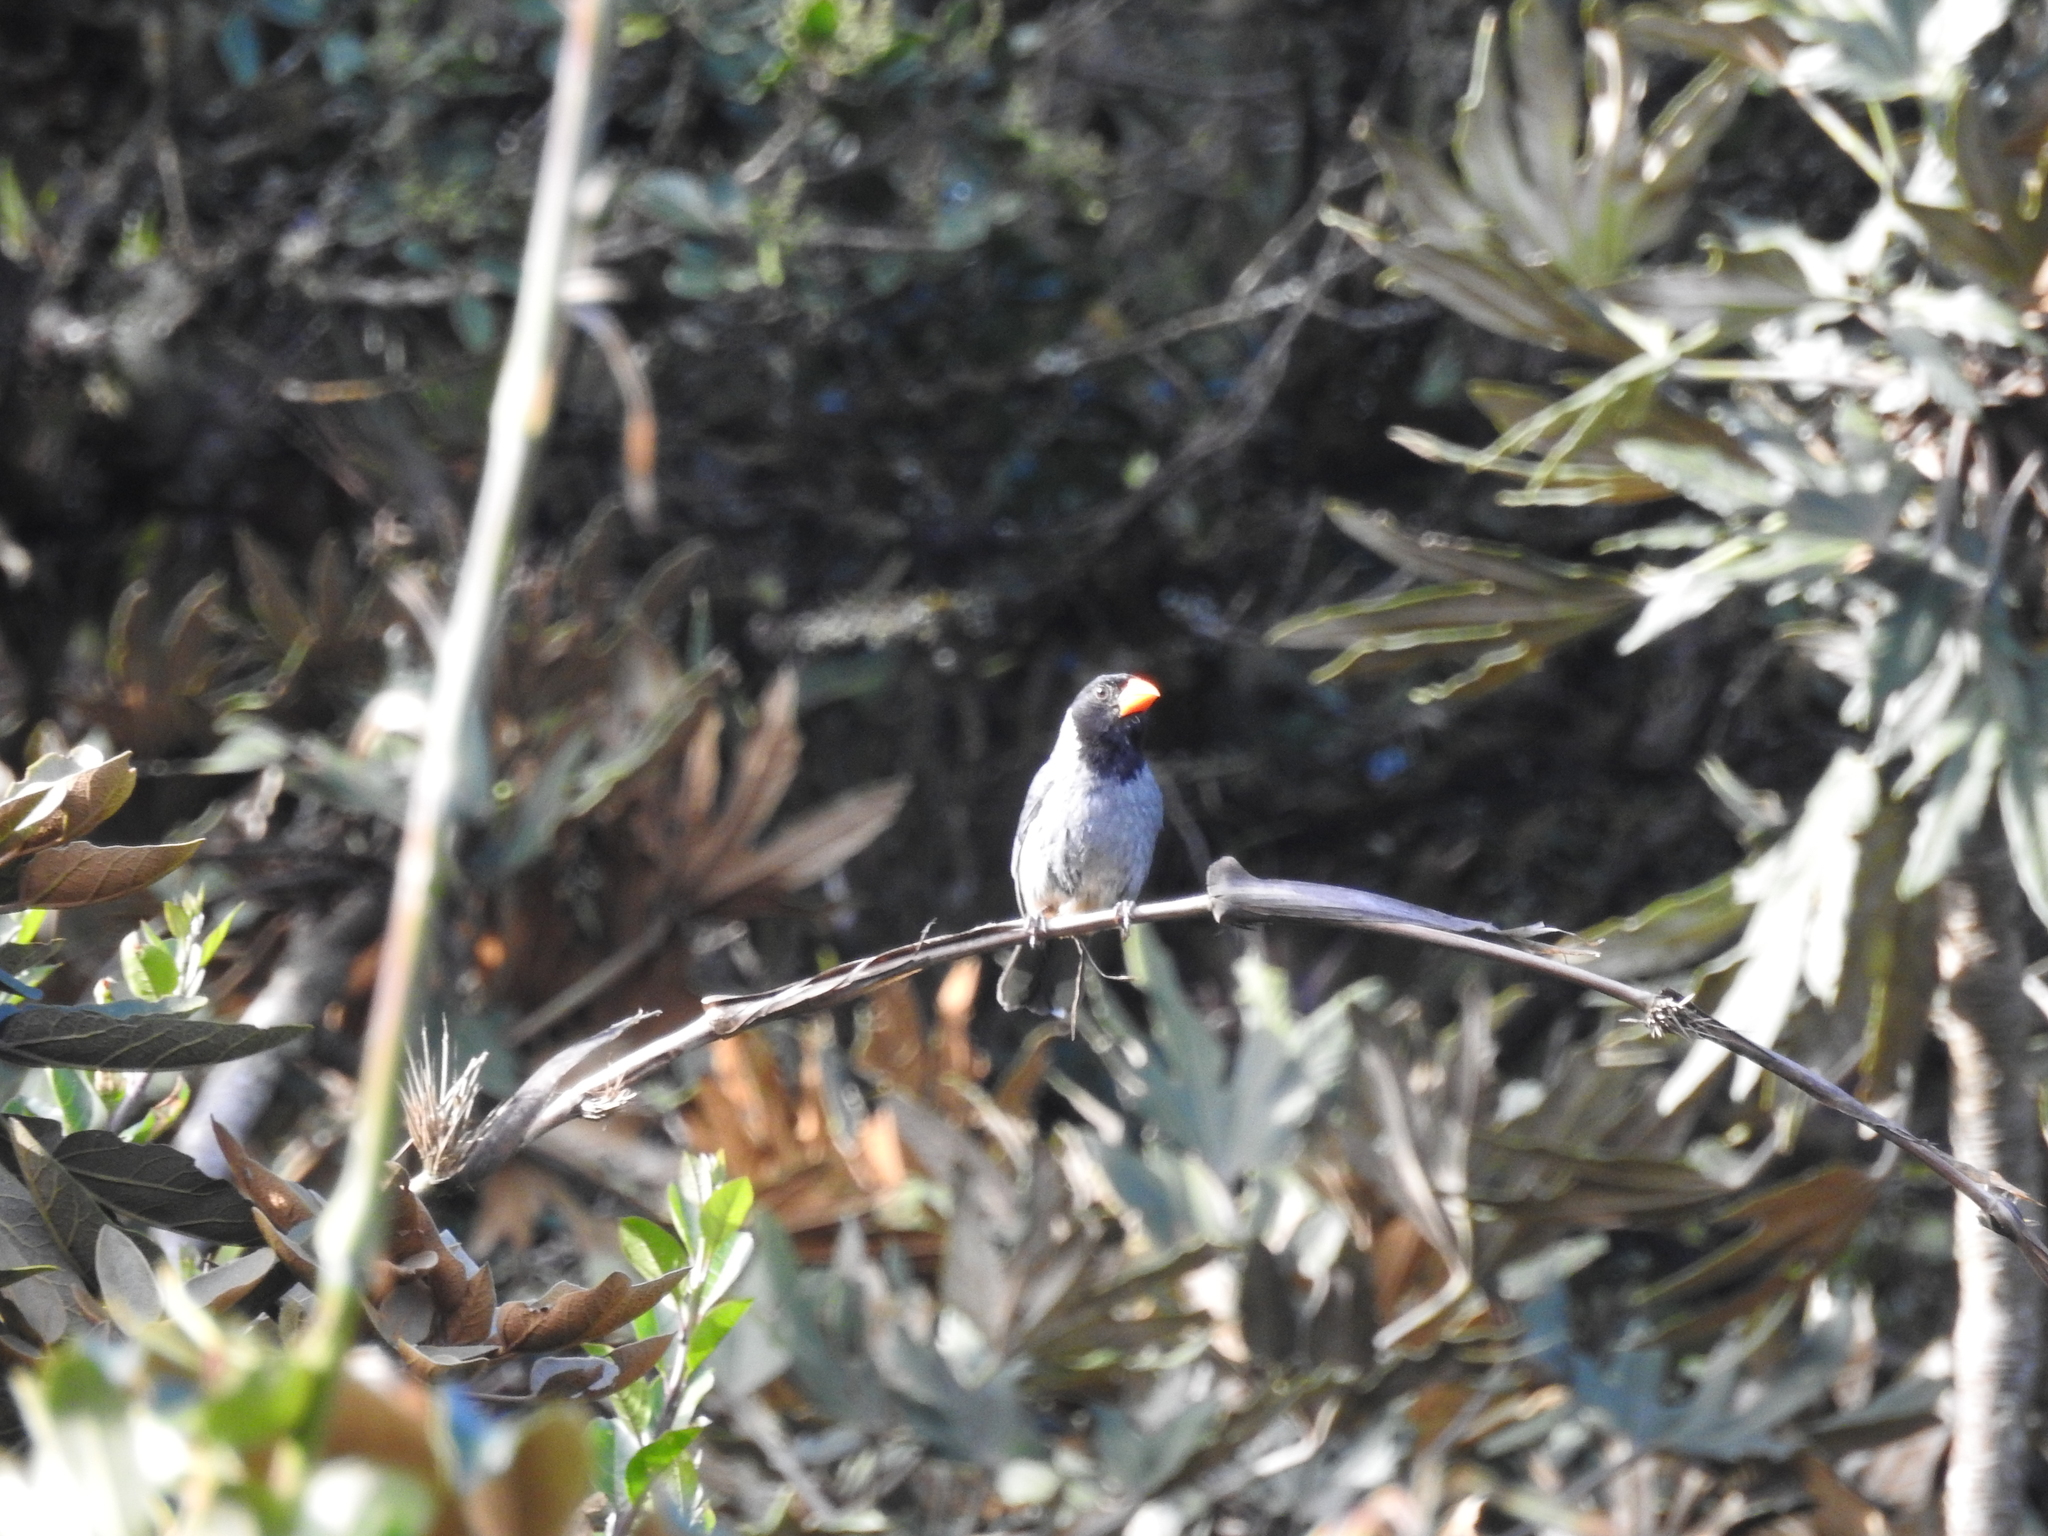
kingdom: Animalia
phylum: Chordata
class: Aves
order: Passeriformes
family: Thraupidae
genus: Saltator
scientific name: Saltator nigriceps
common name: Black-cowled saltator
